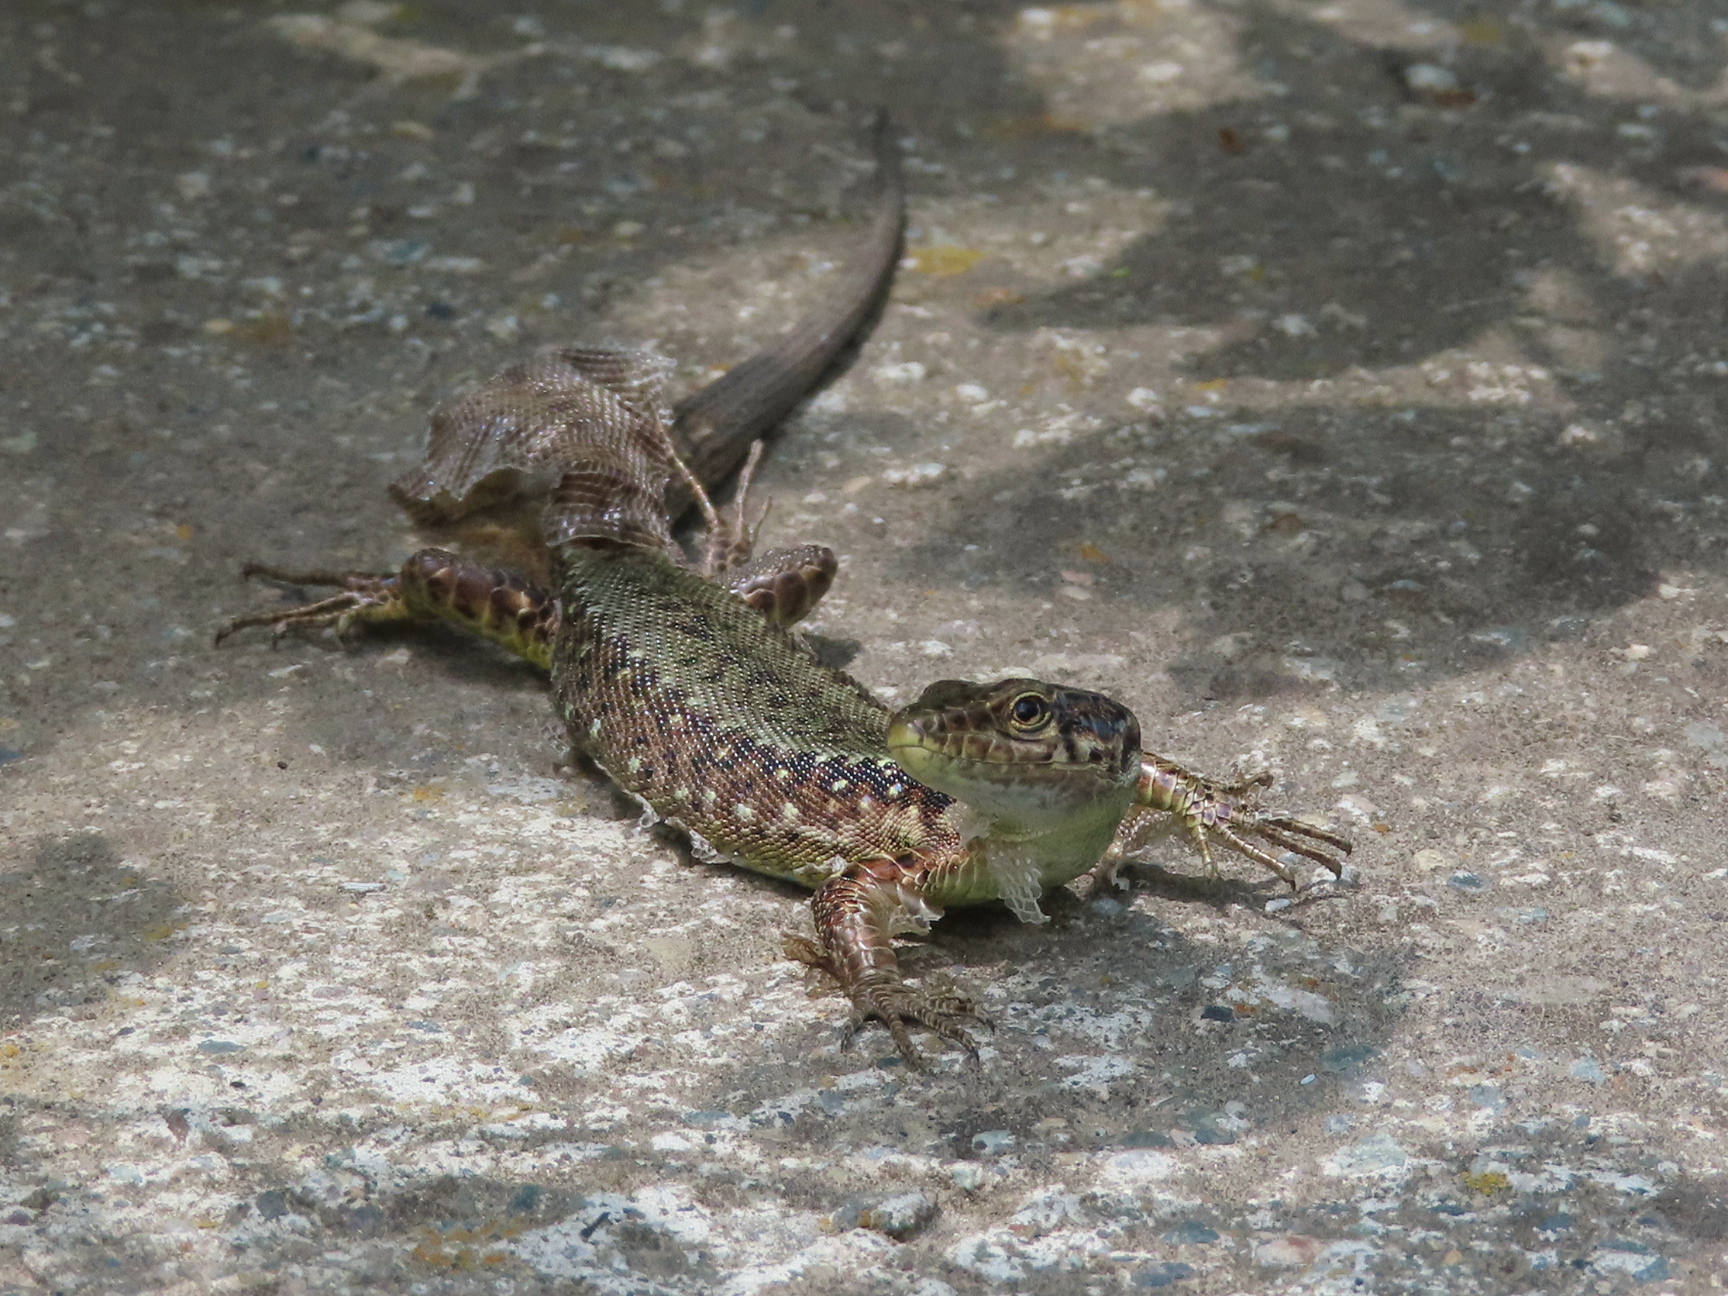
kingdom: Animalia
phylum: Chordata
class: Squamata
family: Lacertidae
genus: Darevskia
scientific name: Darevskia armeniaca
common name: Armenian lizard
